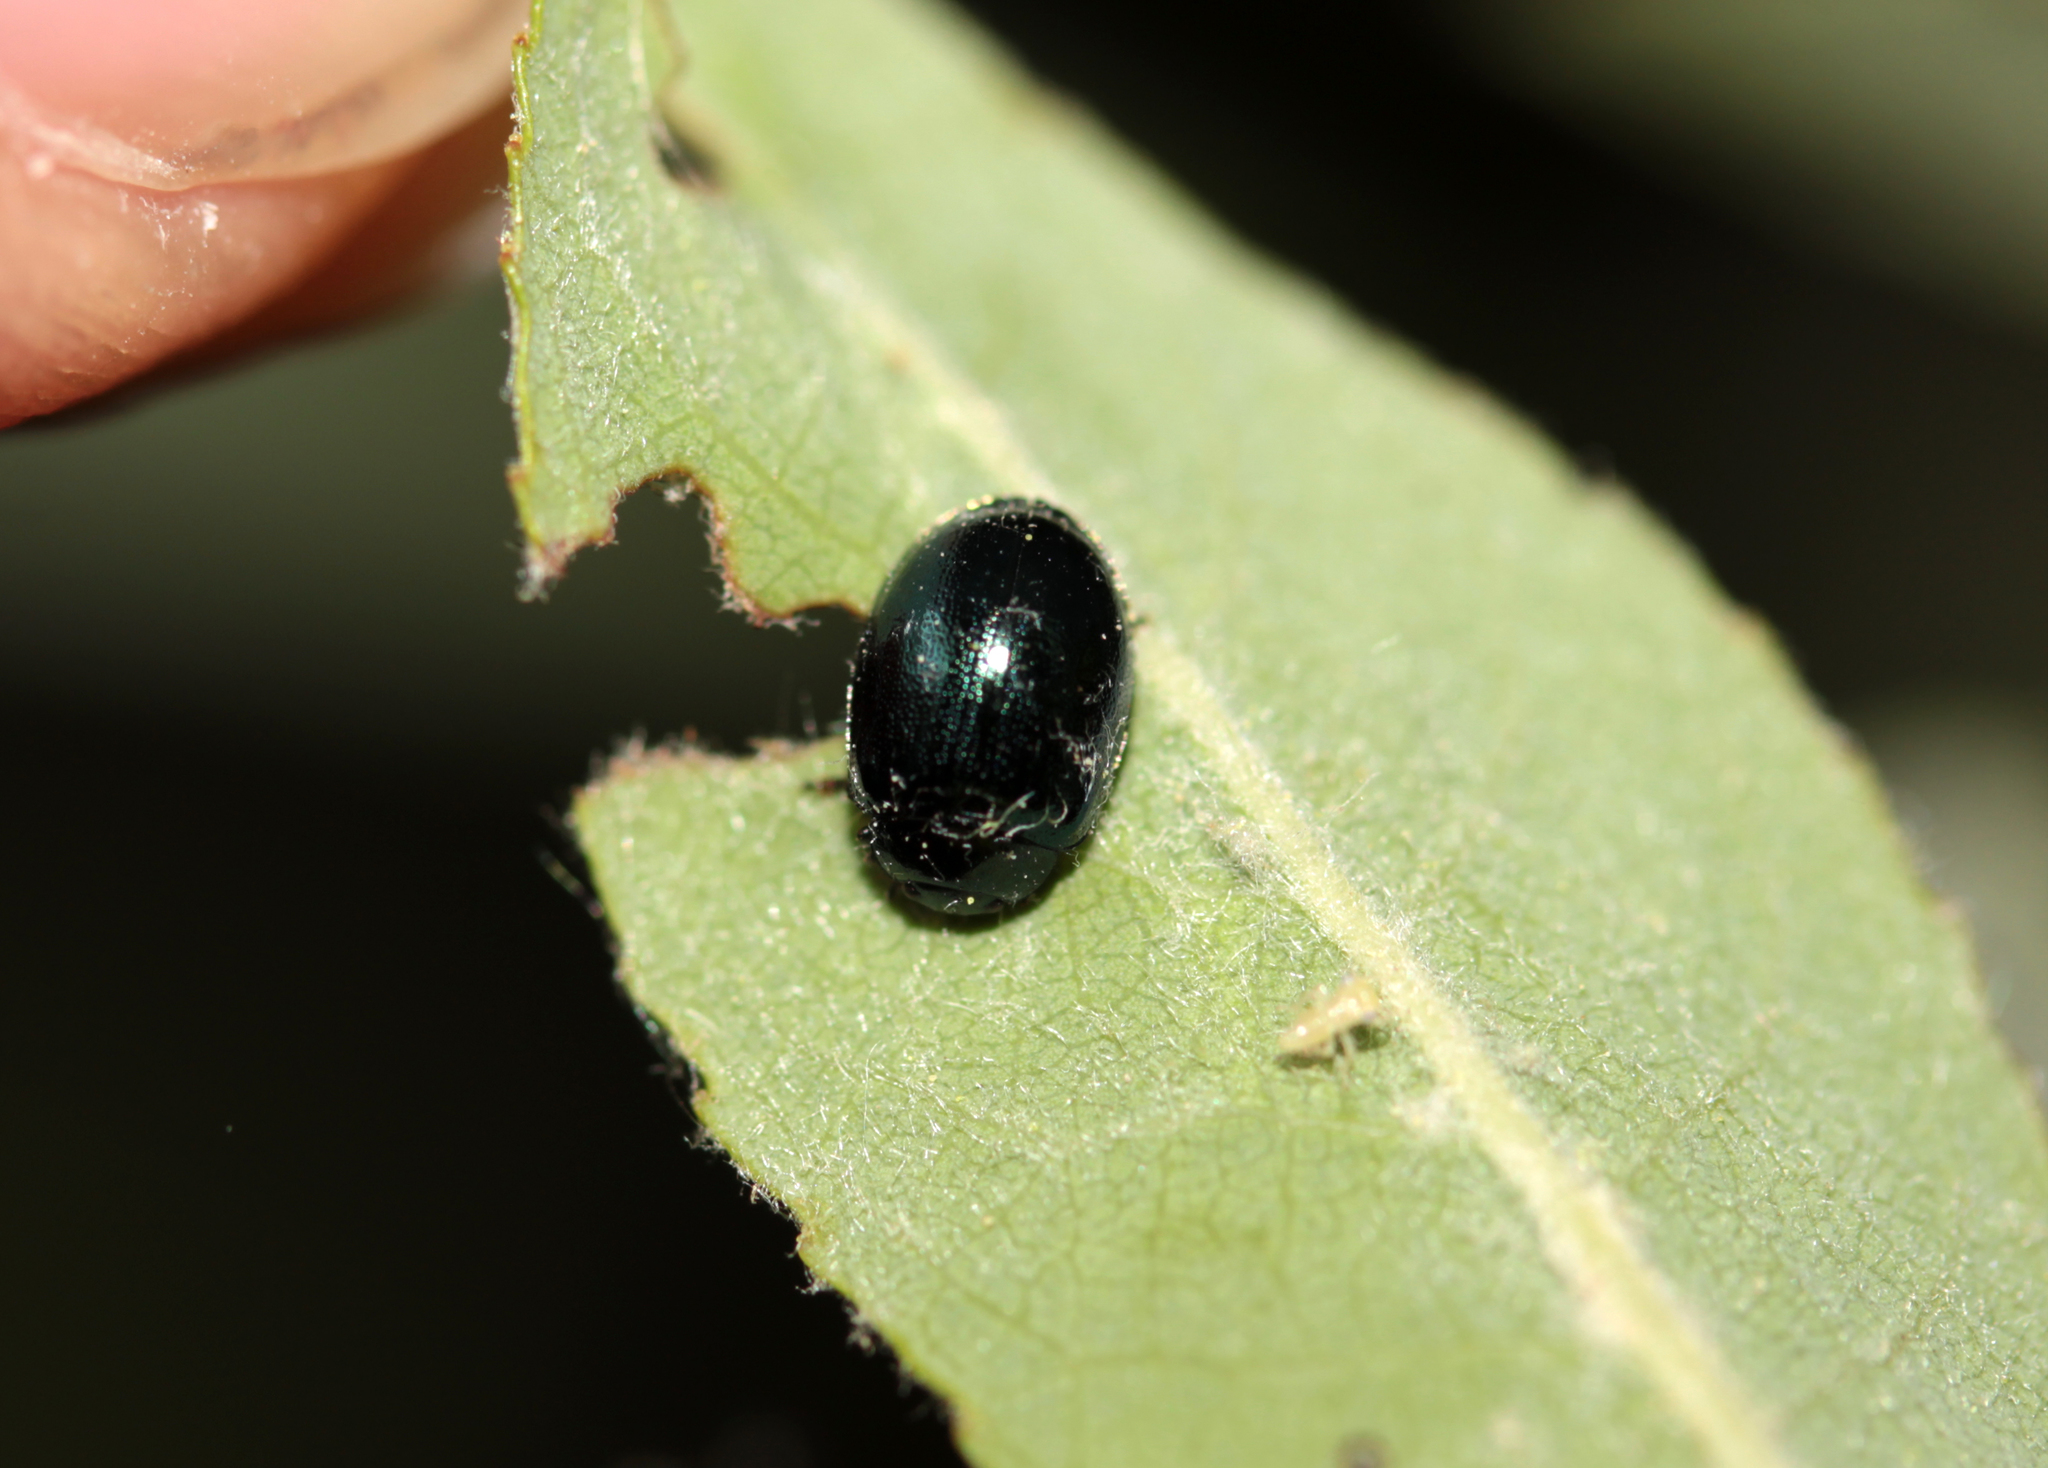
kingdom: Animalia
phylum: Arthropoda
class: Insecta
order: Coleoptera
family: Chrysomelidae
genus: Plagiodera
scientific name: Plagiodera versicolora
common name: Imported willow leaf beetle
